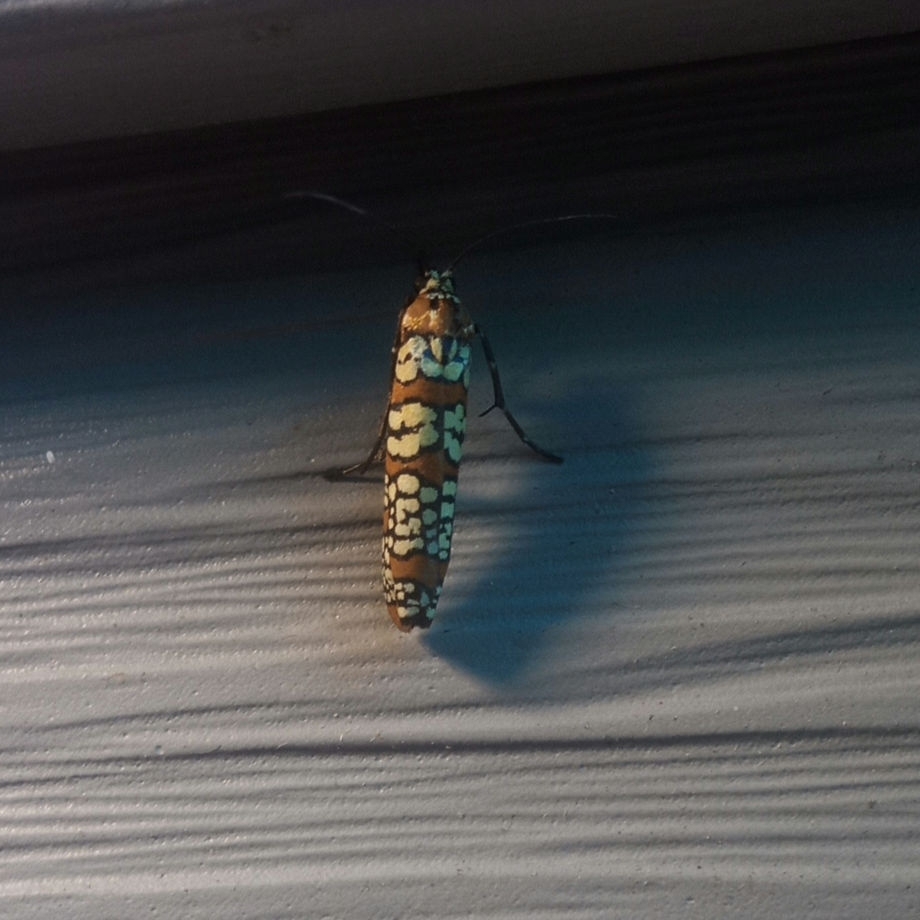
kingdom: Animalia
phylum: Arthropoda
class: Insecta
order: Lepidoptera
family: Attevidae
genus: Atteva
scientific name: Atteva punctella
